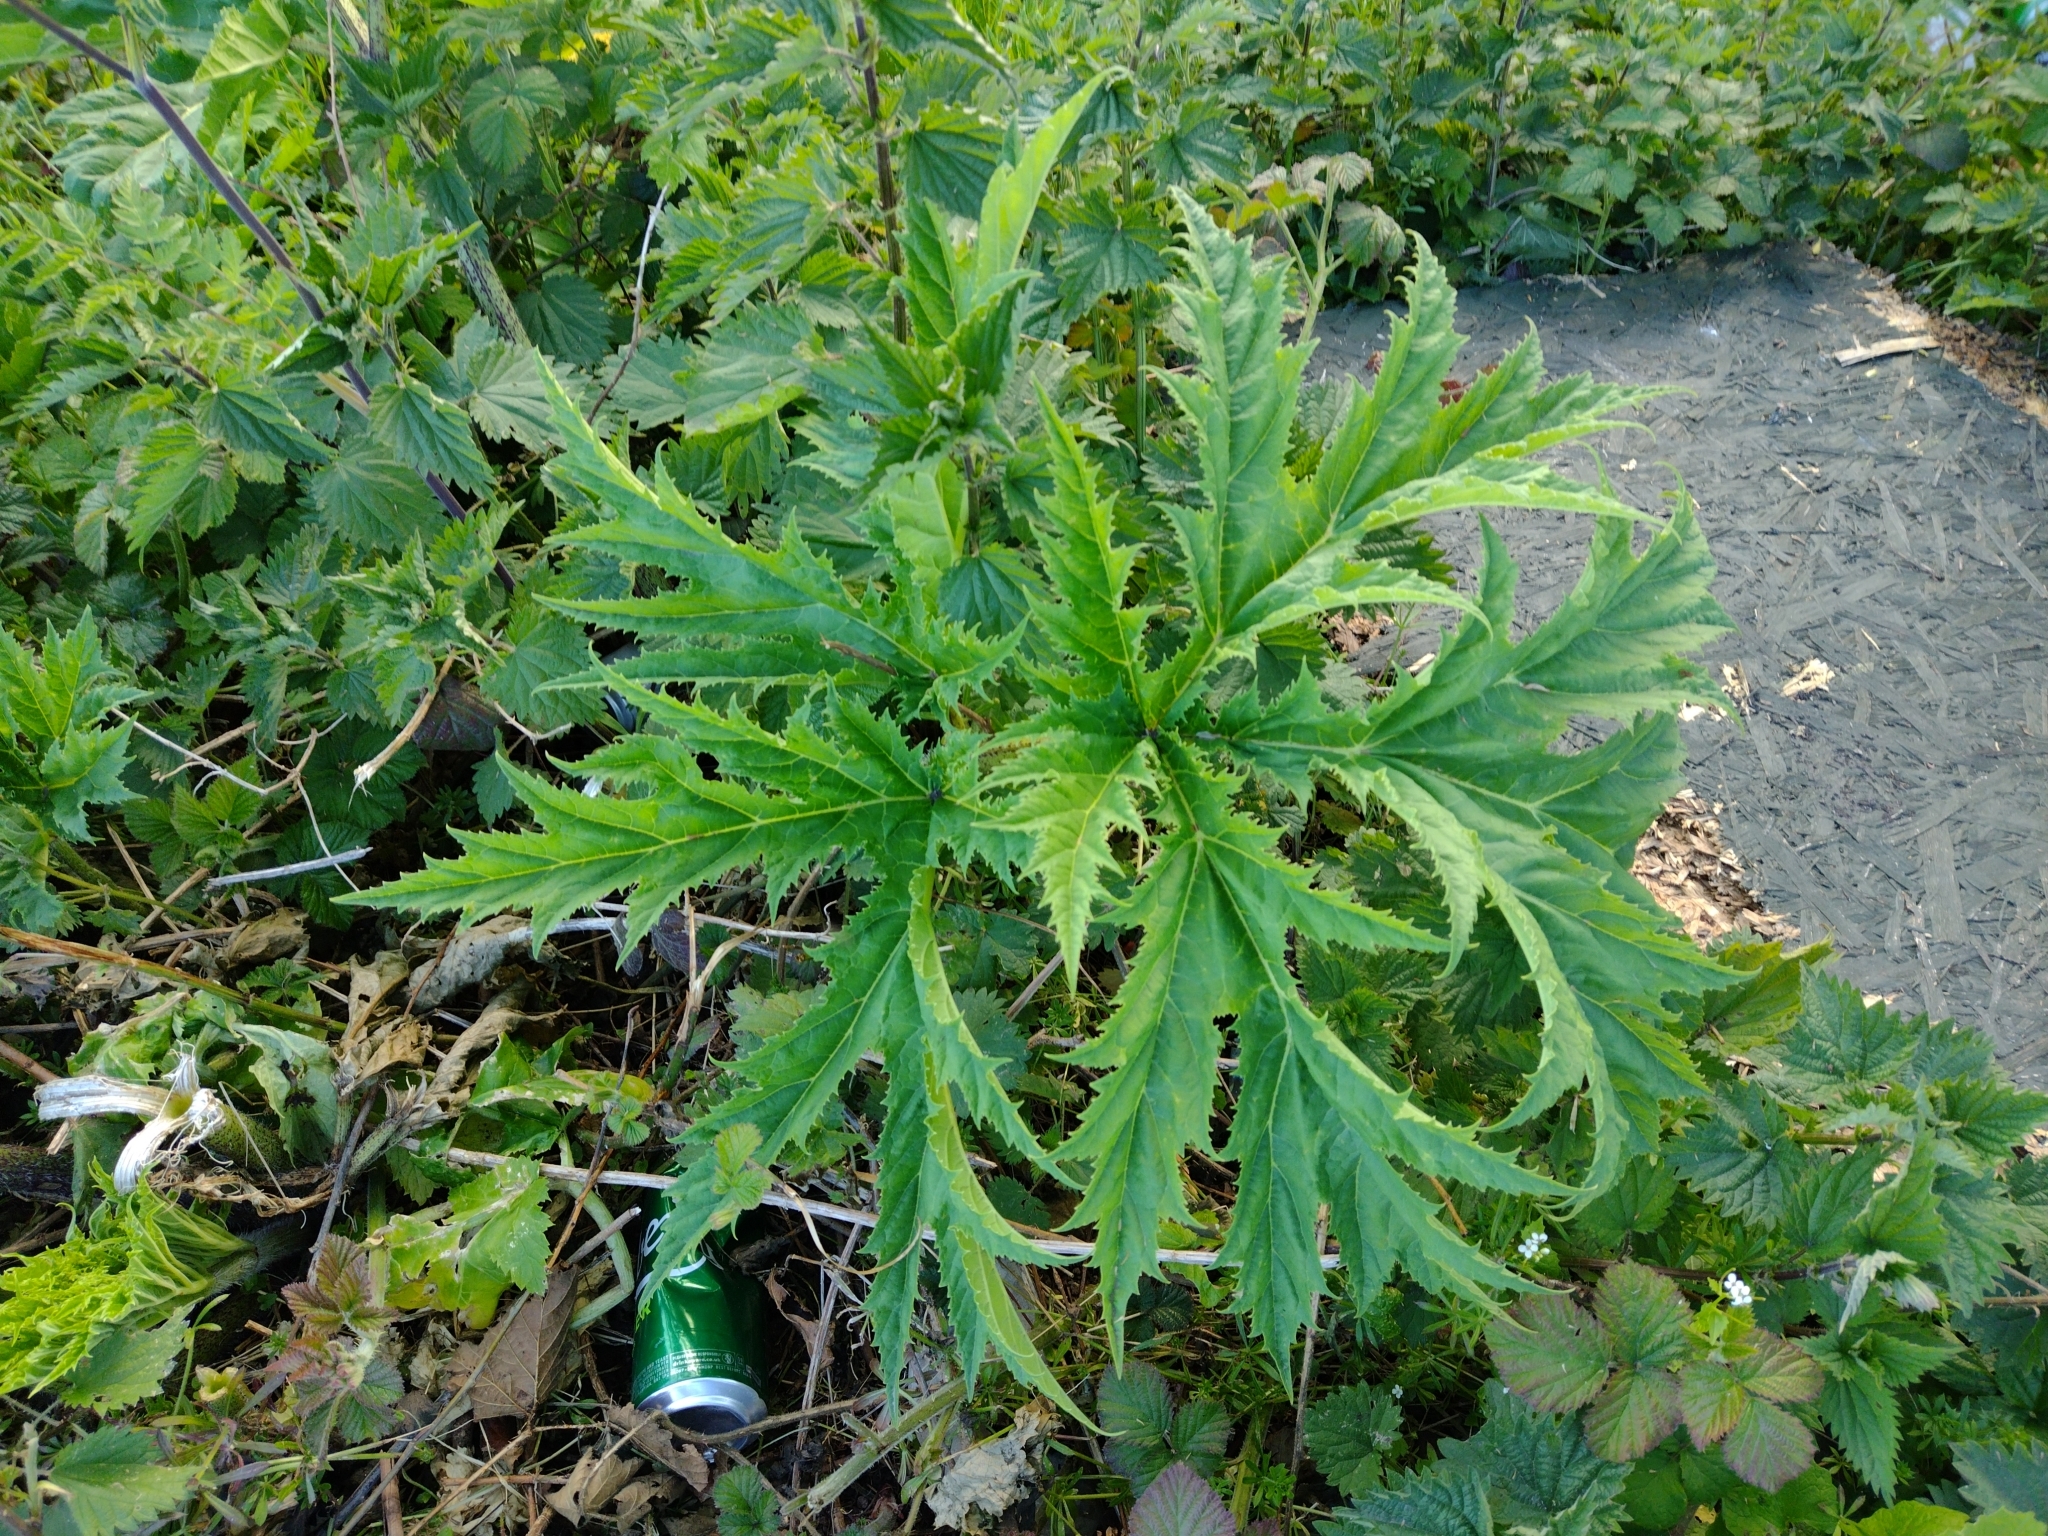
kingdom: Plantae
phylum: Tracheophyta
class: Magnoliopsida
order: Apiales
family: Apiaceae
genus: Heracleum
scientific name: Heracleum mantegazzianum
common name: Giant hogweed
